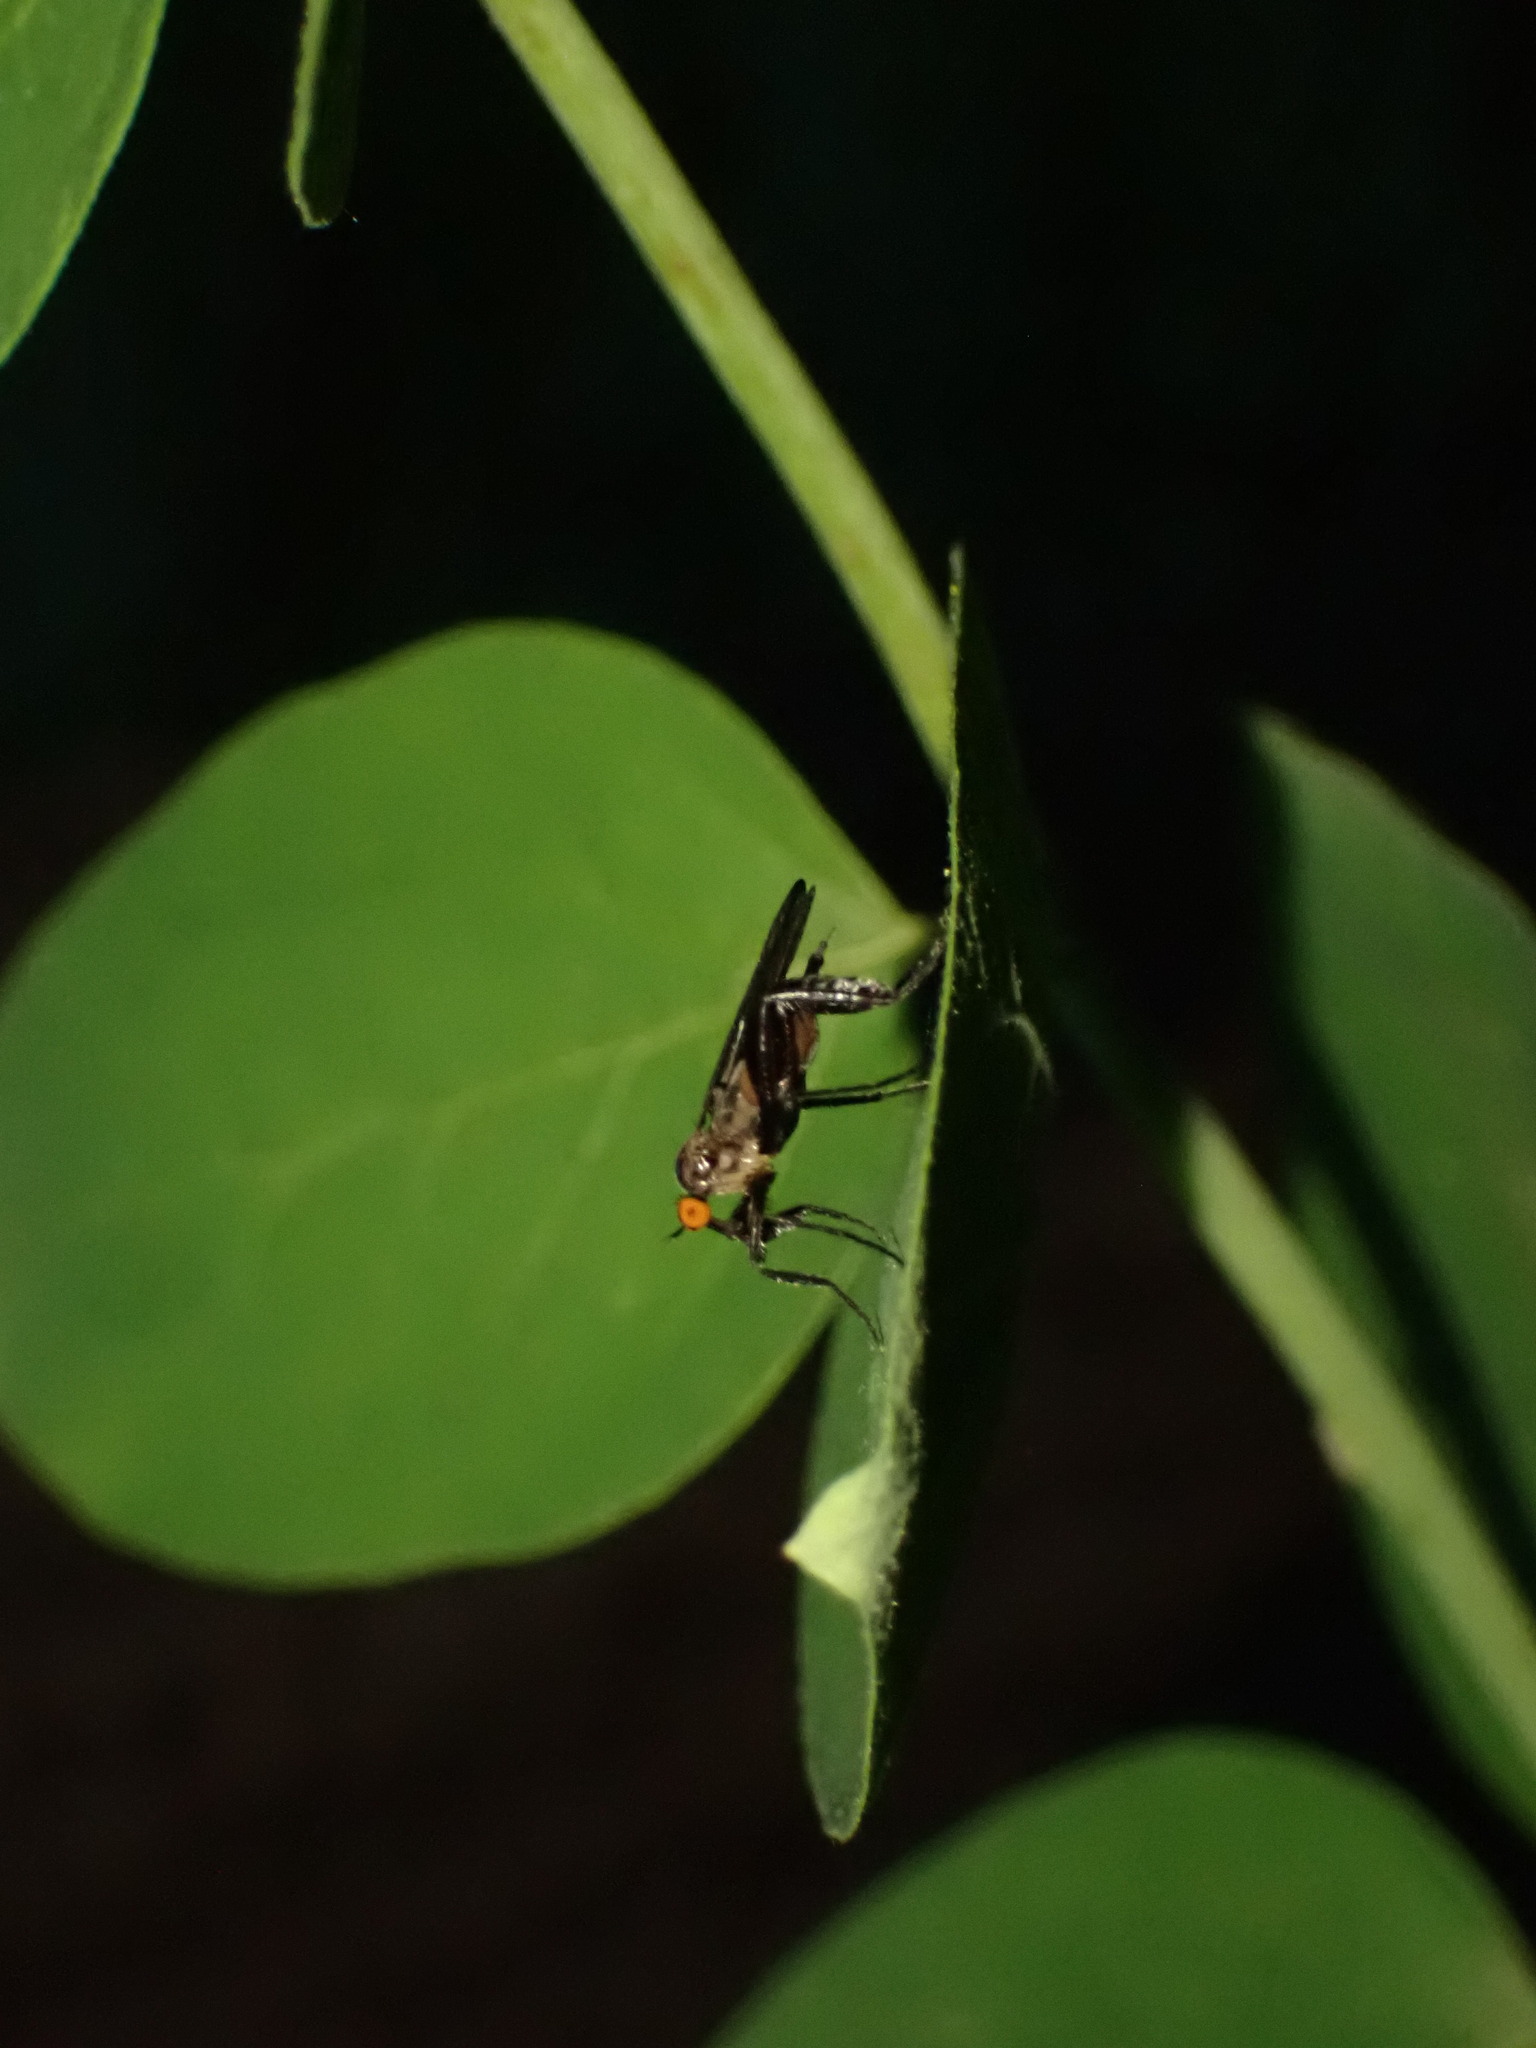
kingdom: Animalia
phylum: Arthropoda
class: Insecta
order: Diptera
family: Empididae
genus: Rhamphomyia
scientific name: Rhamphomyia longicauda
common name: Long-tailed dance fly
